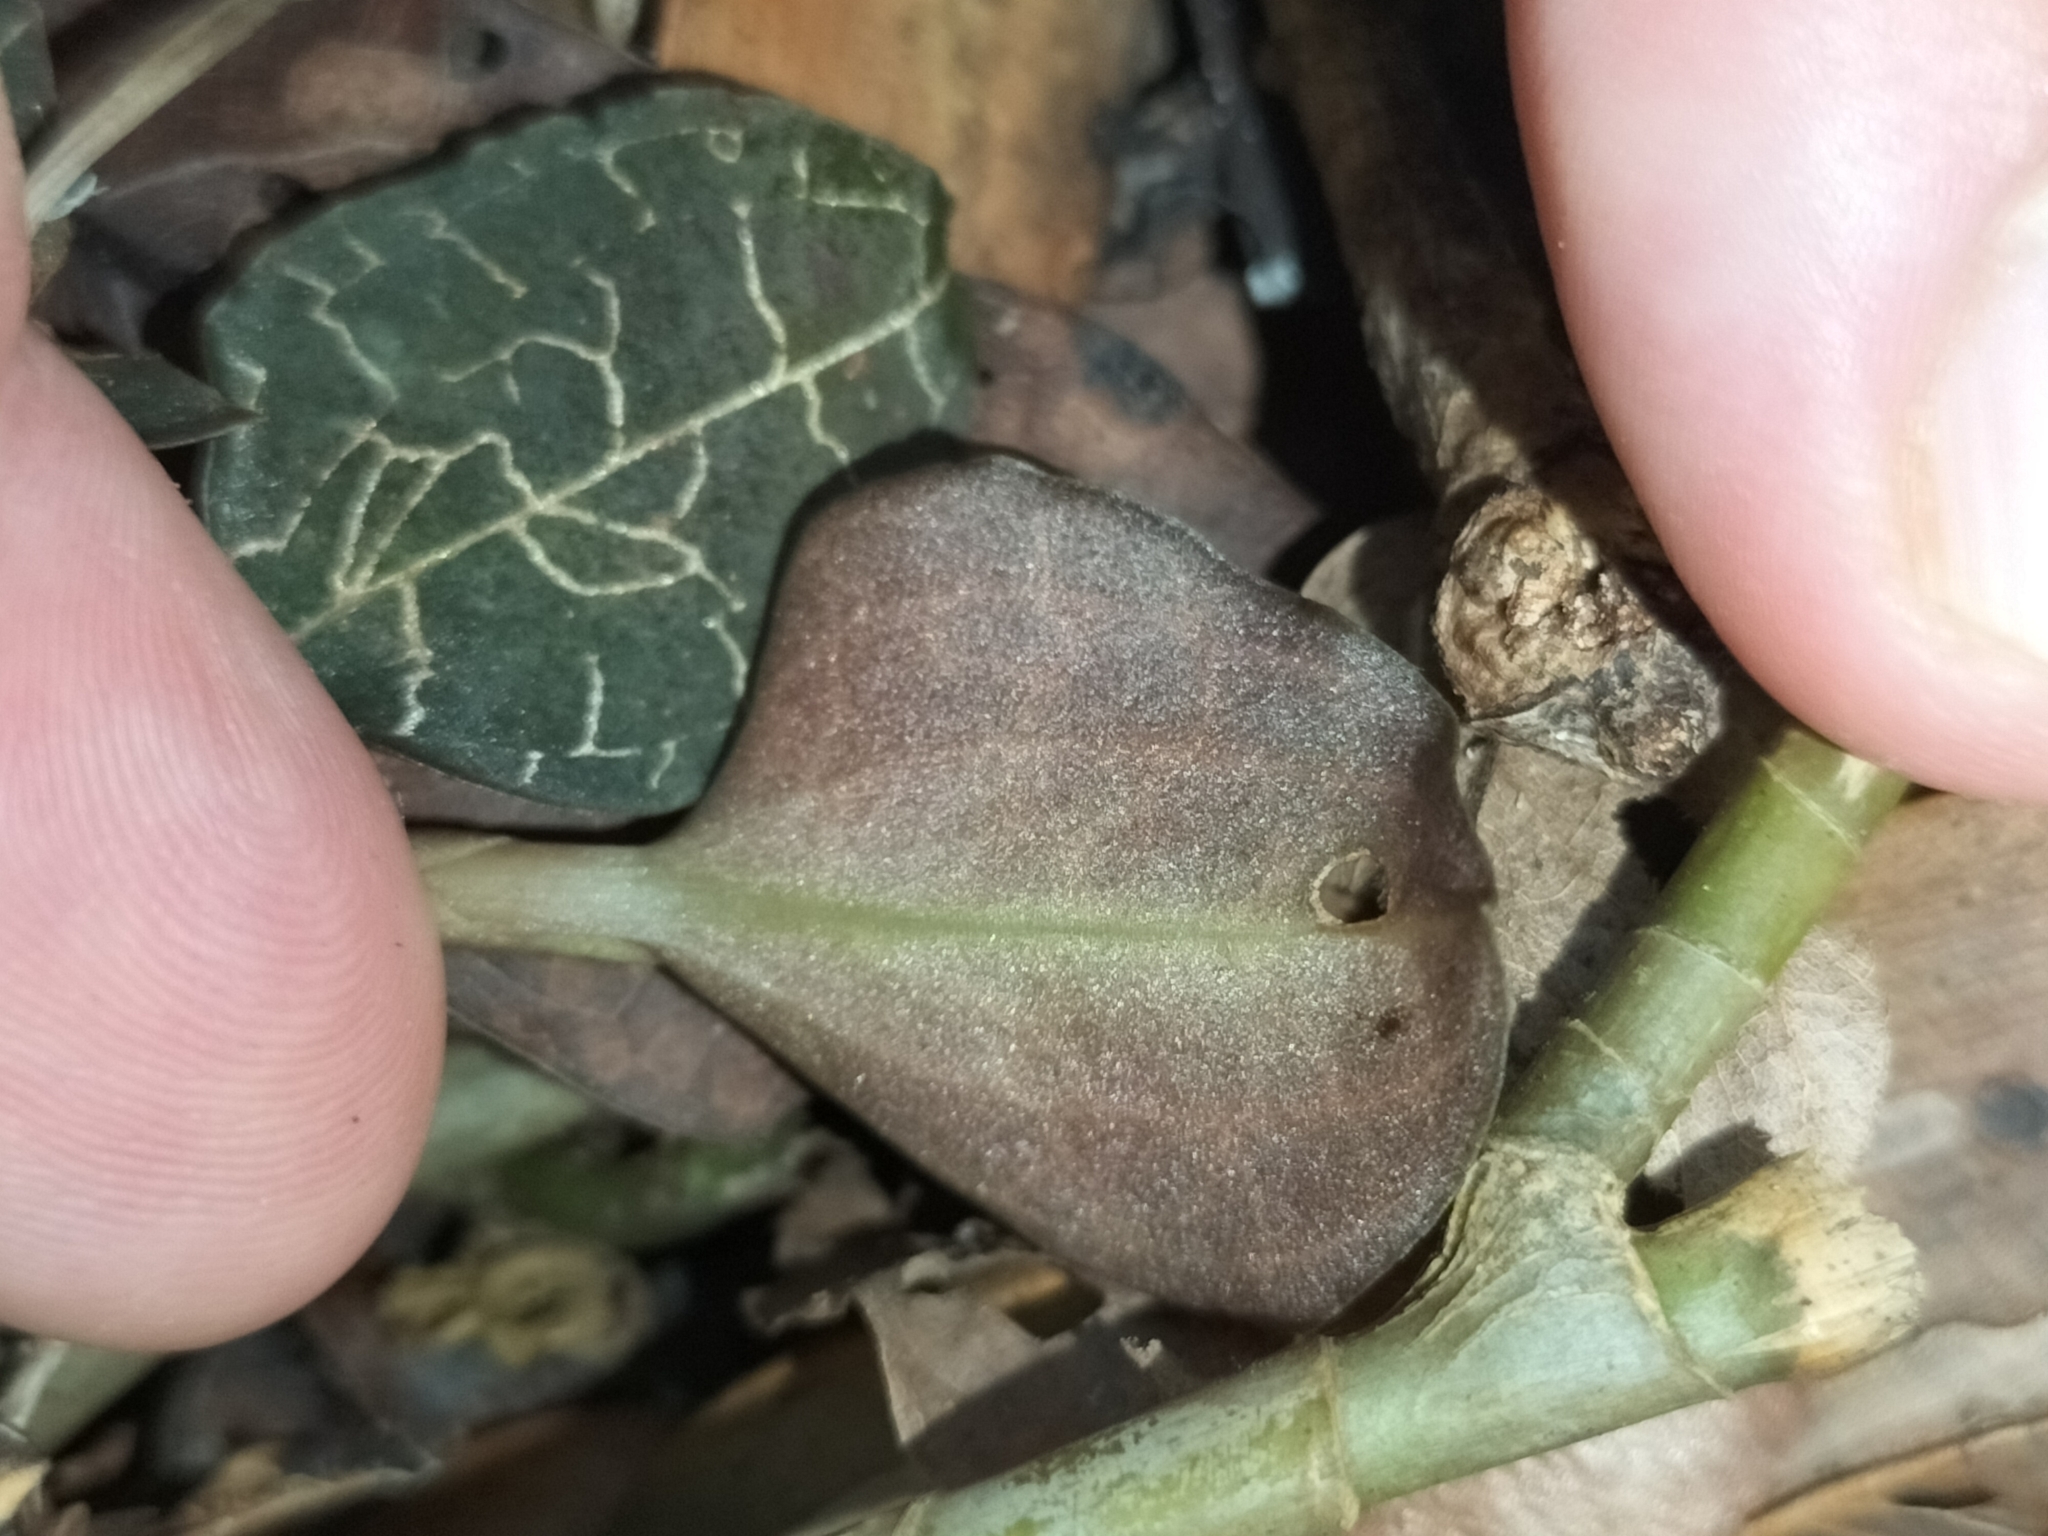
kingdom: Plantae
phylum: Tracheophyta
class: Liliopsida
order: Asparagales
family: Orchidaceae
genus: Anoectochilus
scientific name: Anoectochilus yatesiae
